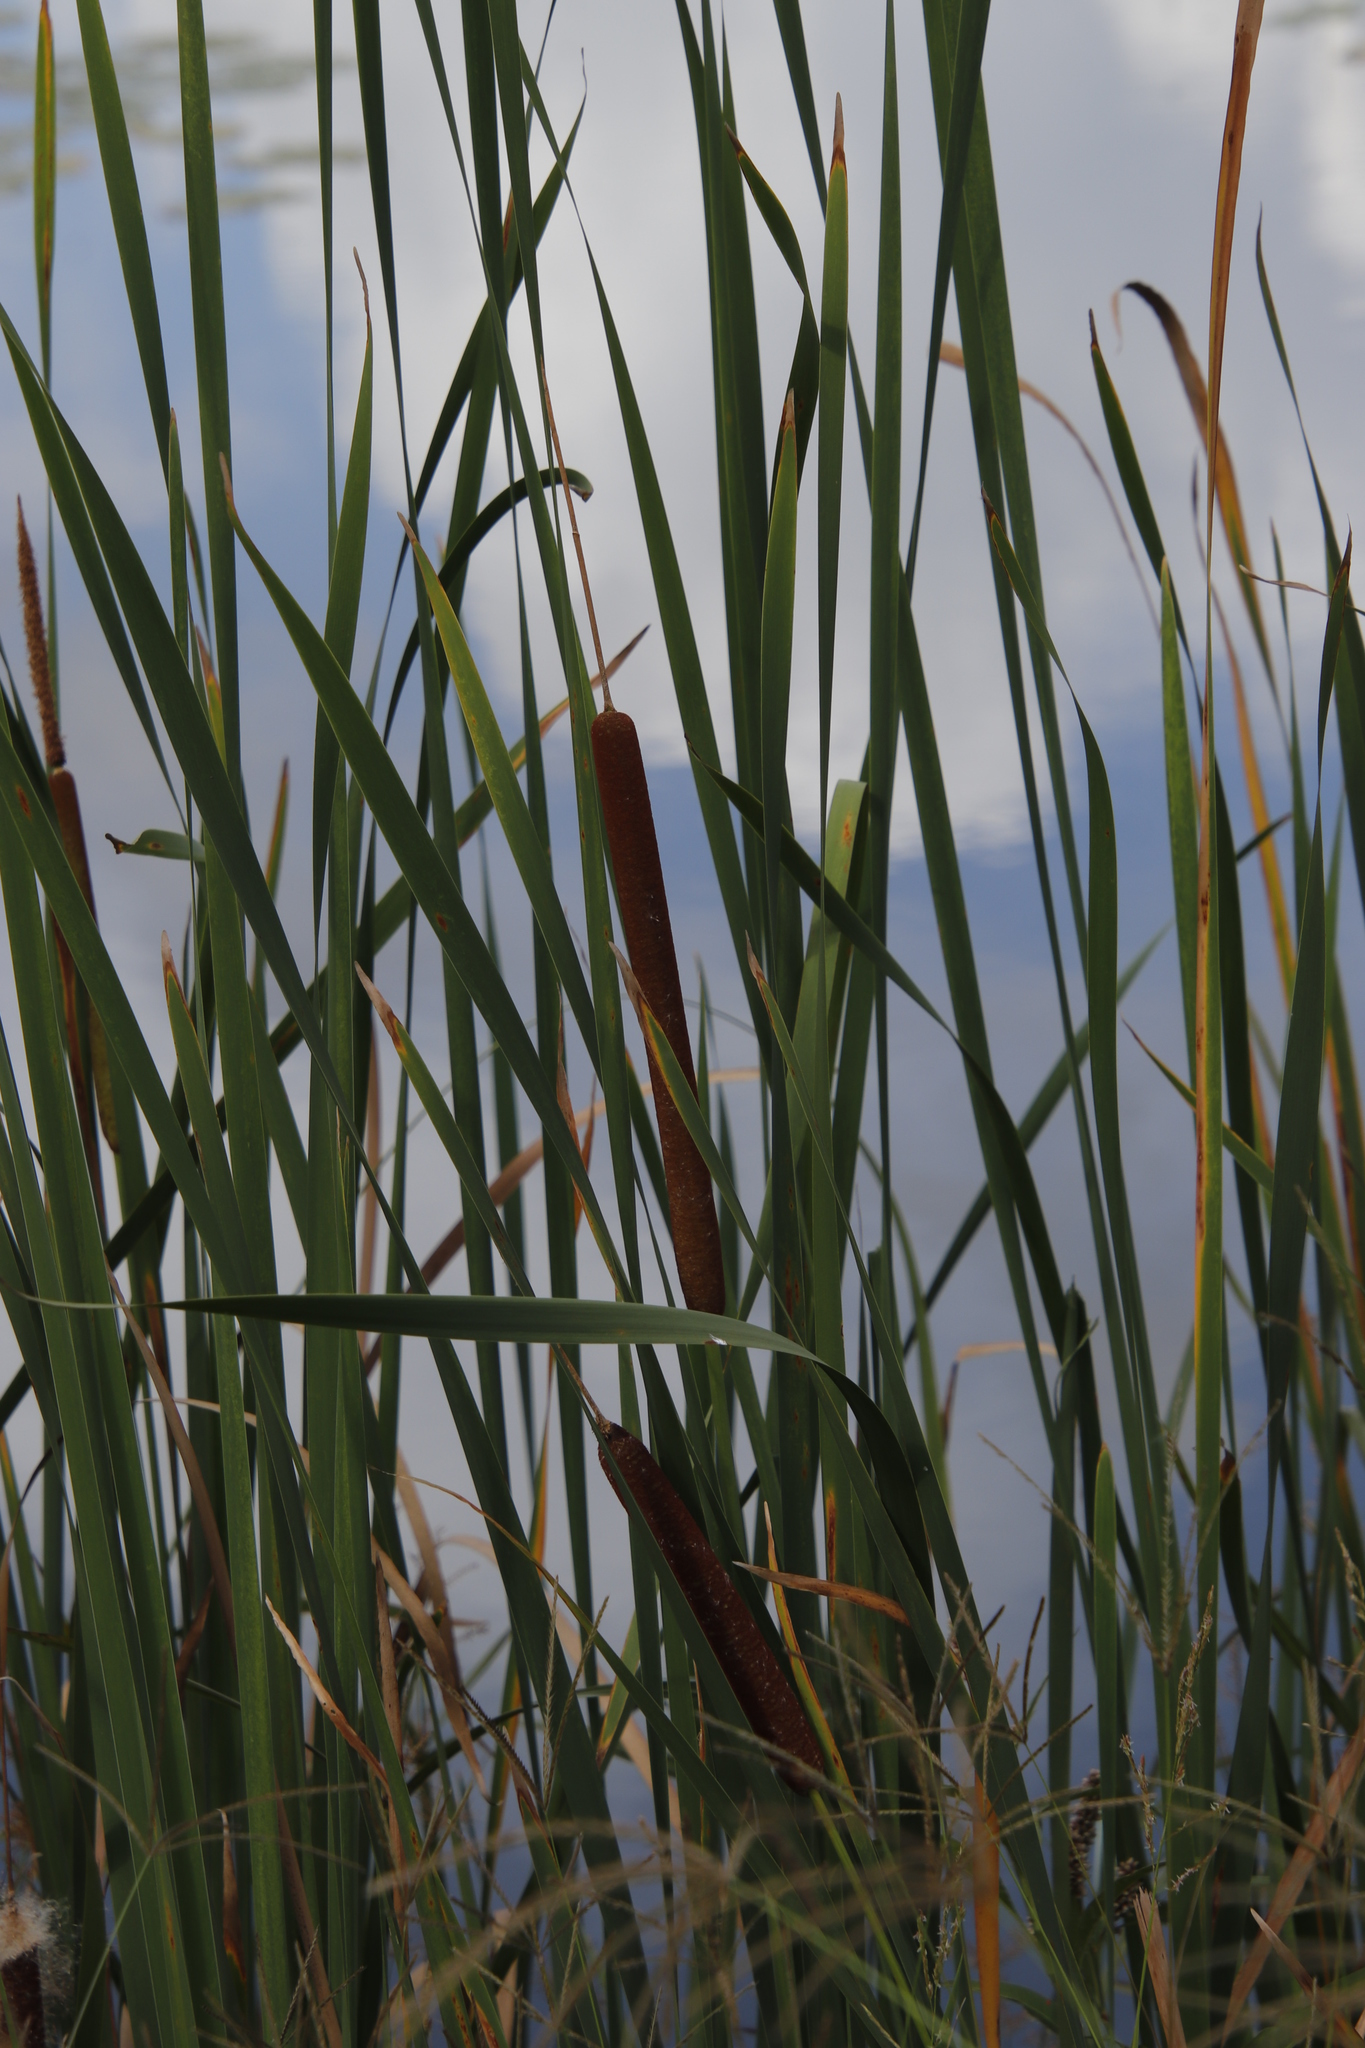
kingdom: Plantae
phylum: Tracheophyta
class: Liliopsida
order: Poales
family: Typhaceae
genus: Typha
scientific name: Typha capensis
